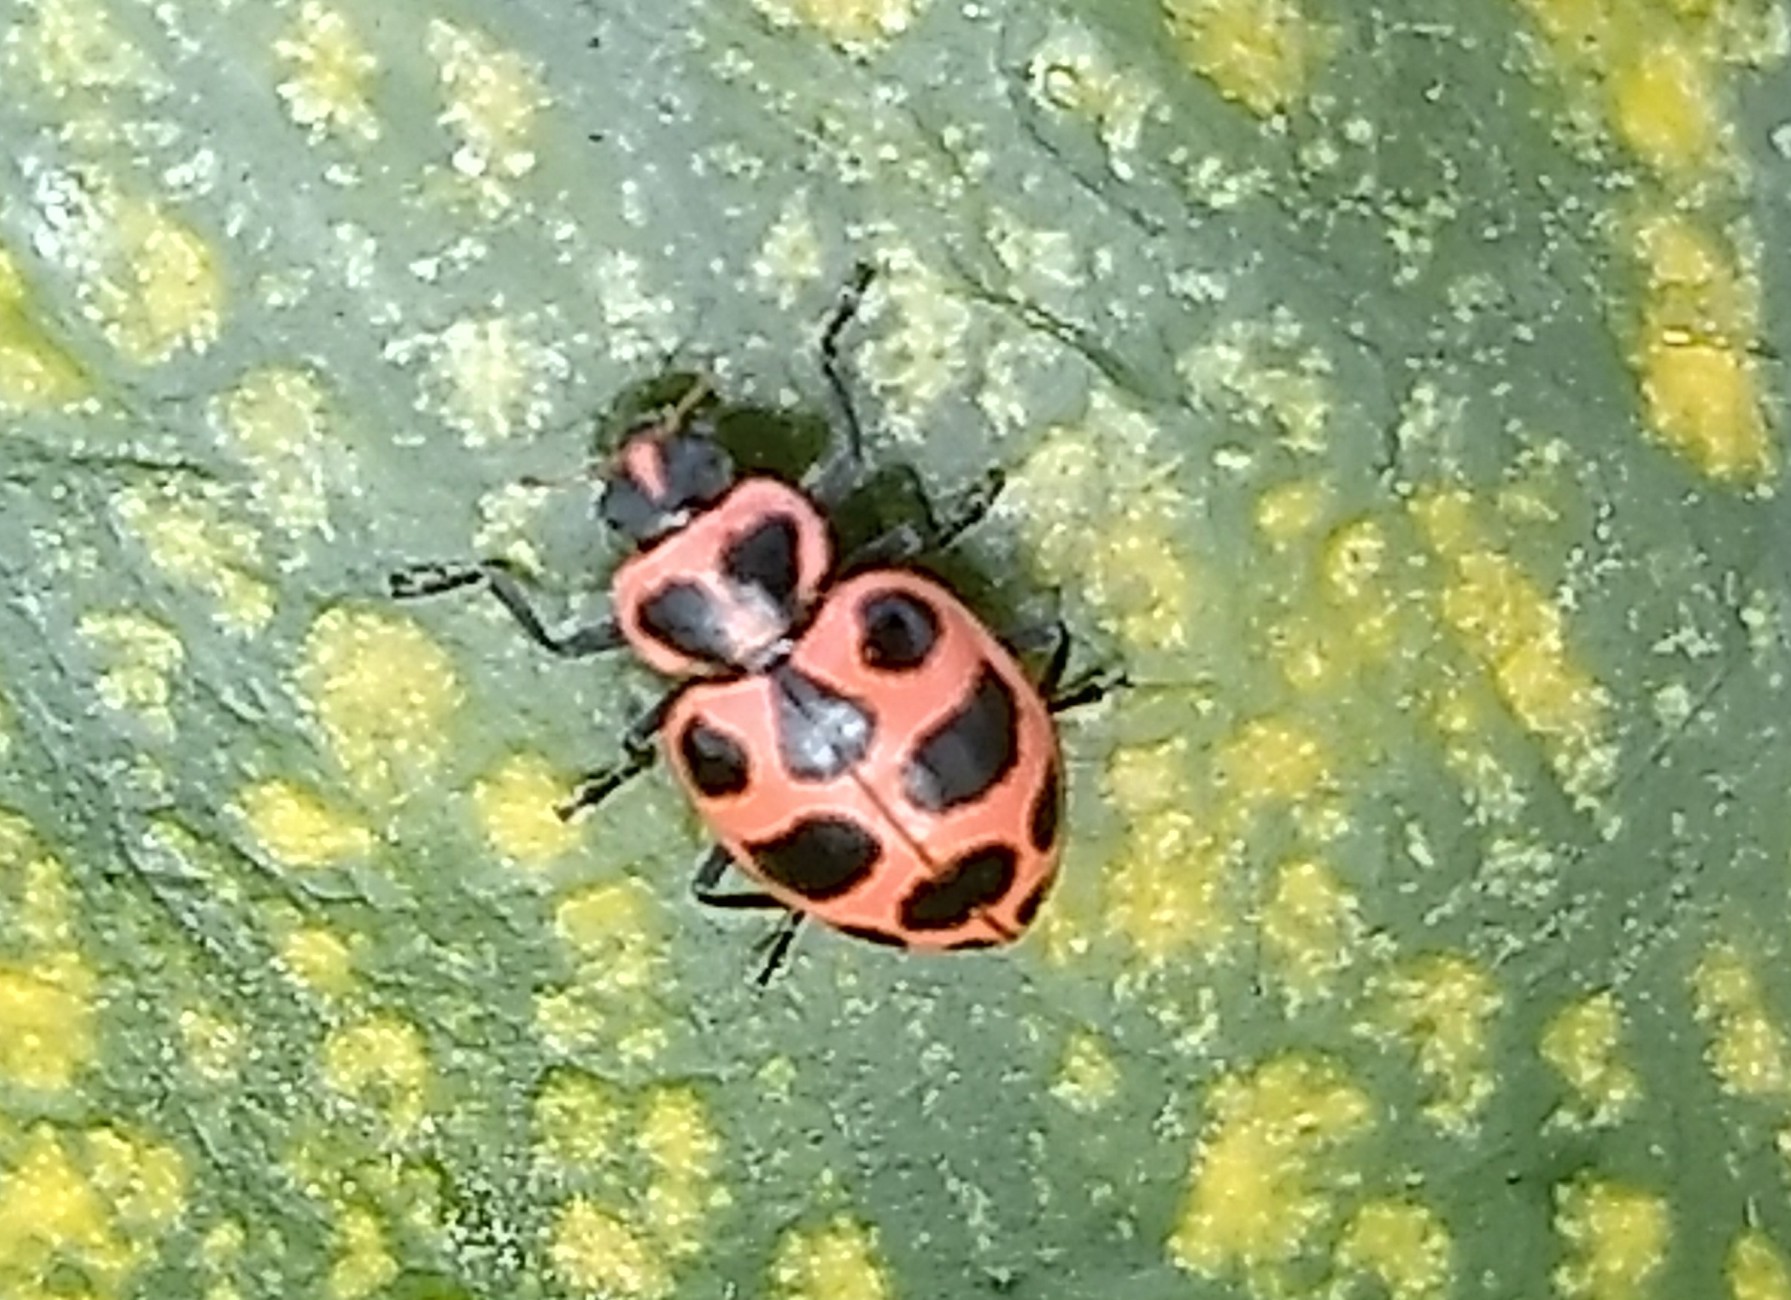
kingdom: Animalia
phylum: Arthropoda
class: Insecta
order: Coleoptera
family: Coccinellidae
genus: Coleomegilla
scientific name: Coleomegilla maculata
